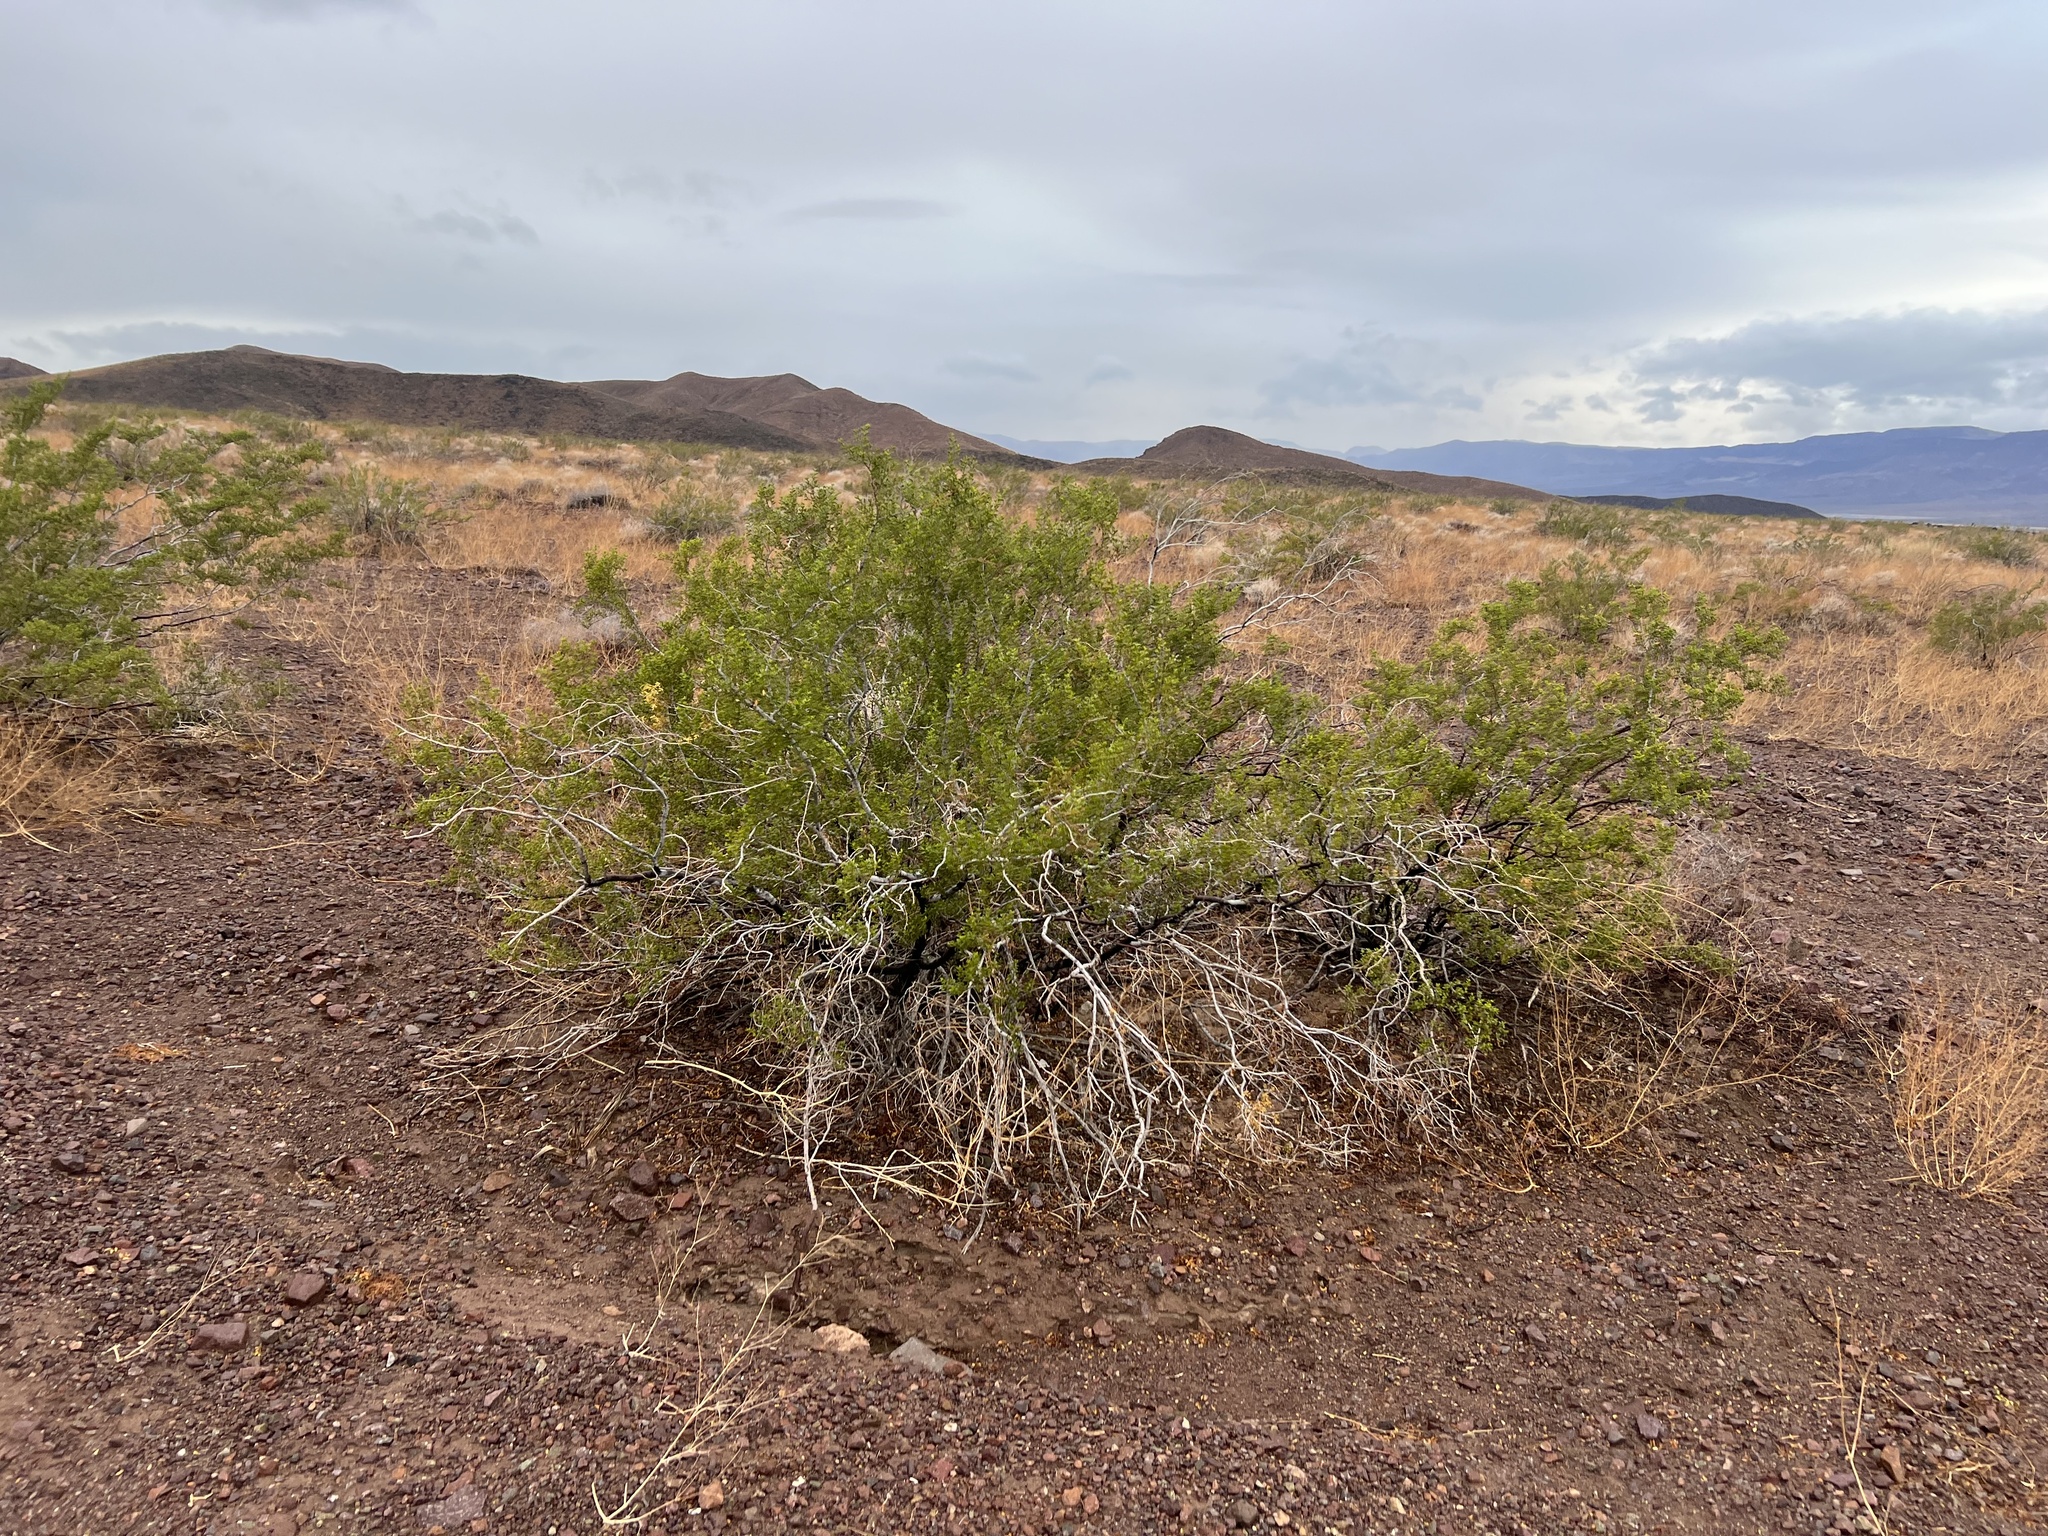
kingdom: Plantae
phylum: Tracheophyta
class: Magnoliopsida
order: Zygophyllales
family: Zygophyllaceae
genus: Larrea
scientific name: Larrea tridentata
